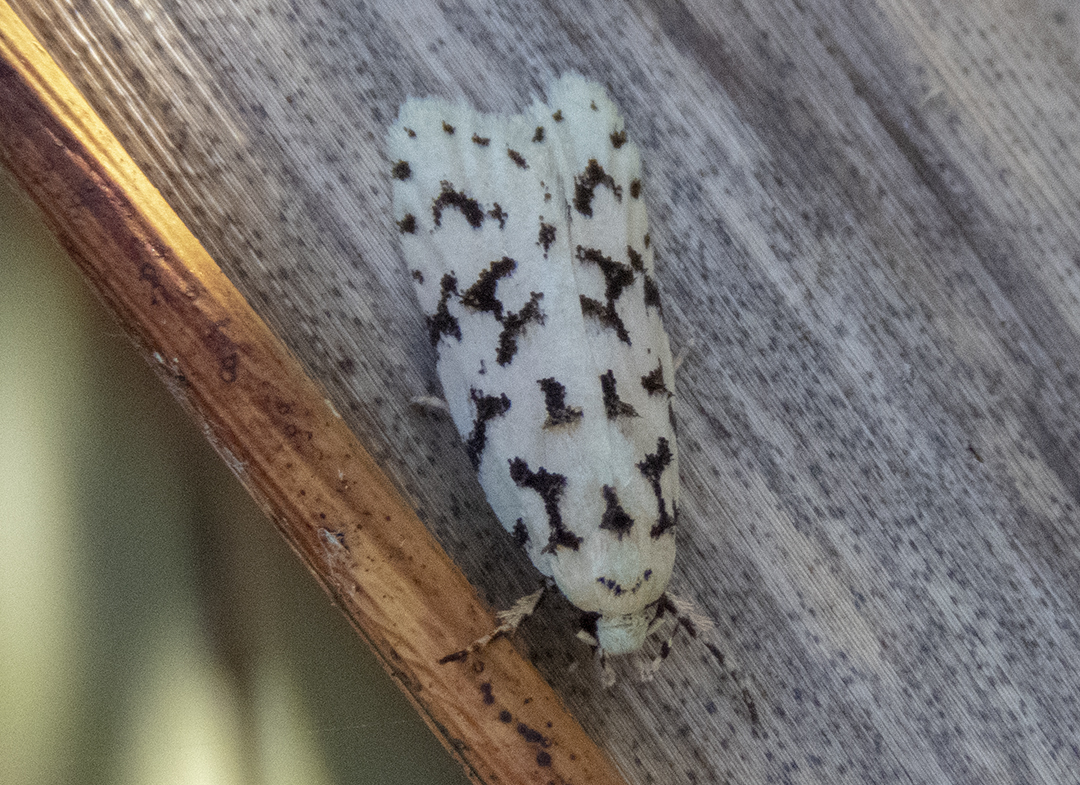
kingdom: Animalia
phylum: Arthropoda
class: Insecta
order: Lepidoptera
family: Oecophoridae
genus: Izatha
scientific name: Izatha huttoni
